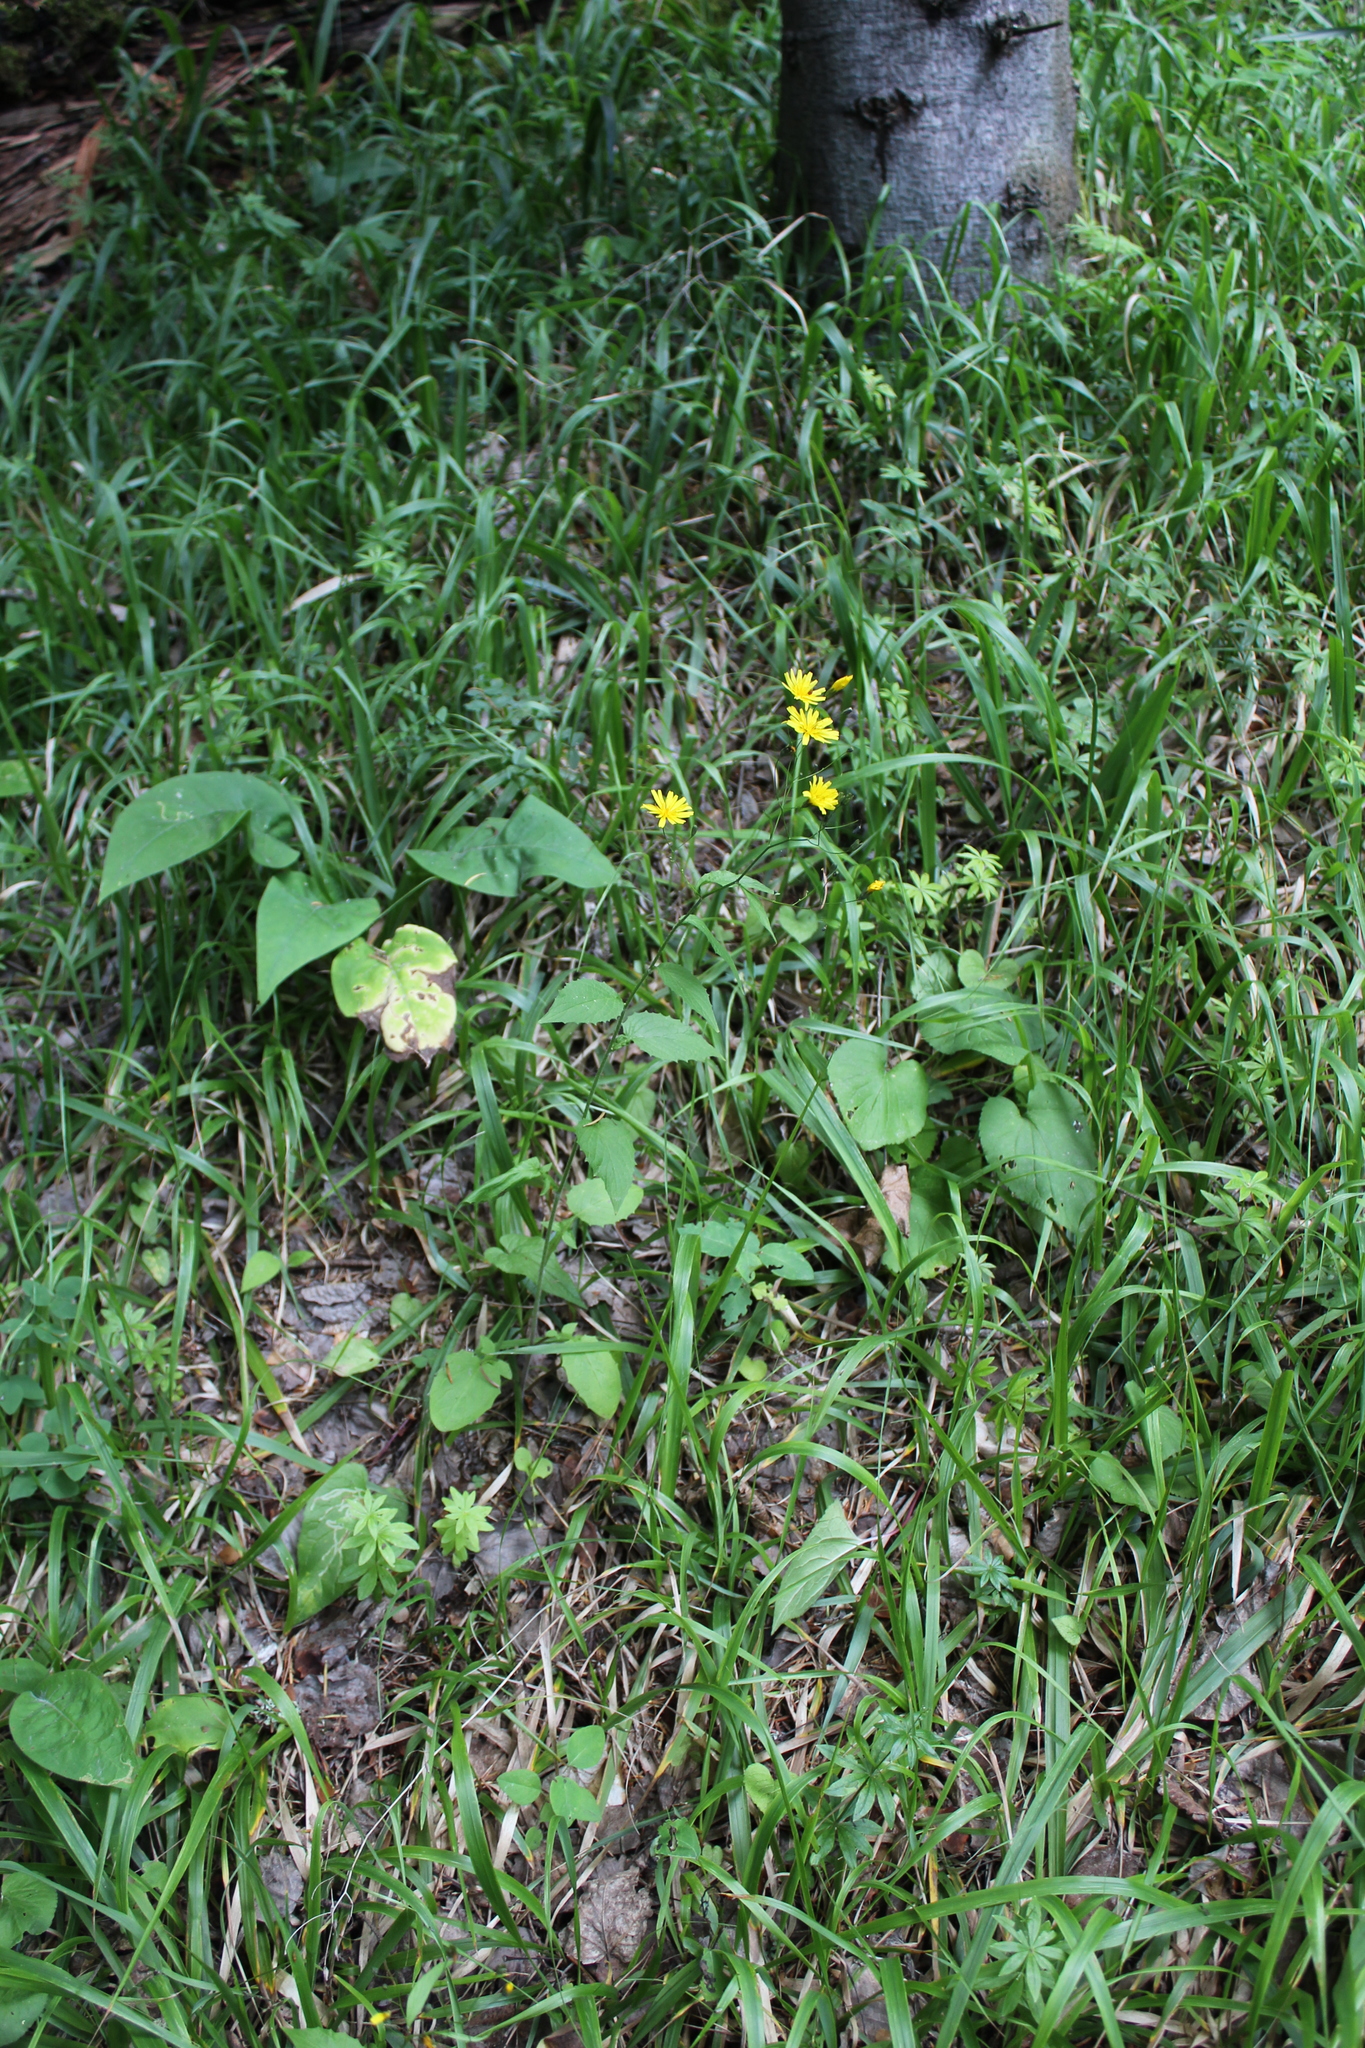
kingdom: Plantae
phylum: Tracheophyta
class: Magnoliopsida
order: Asterales
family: Asteraceae
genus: Lapsana
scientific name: Lapsana communis
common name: Nipplewort
